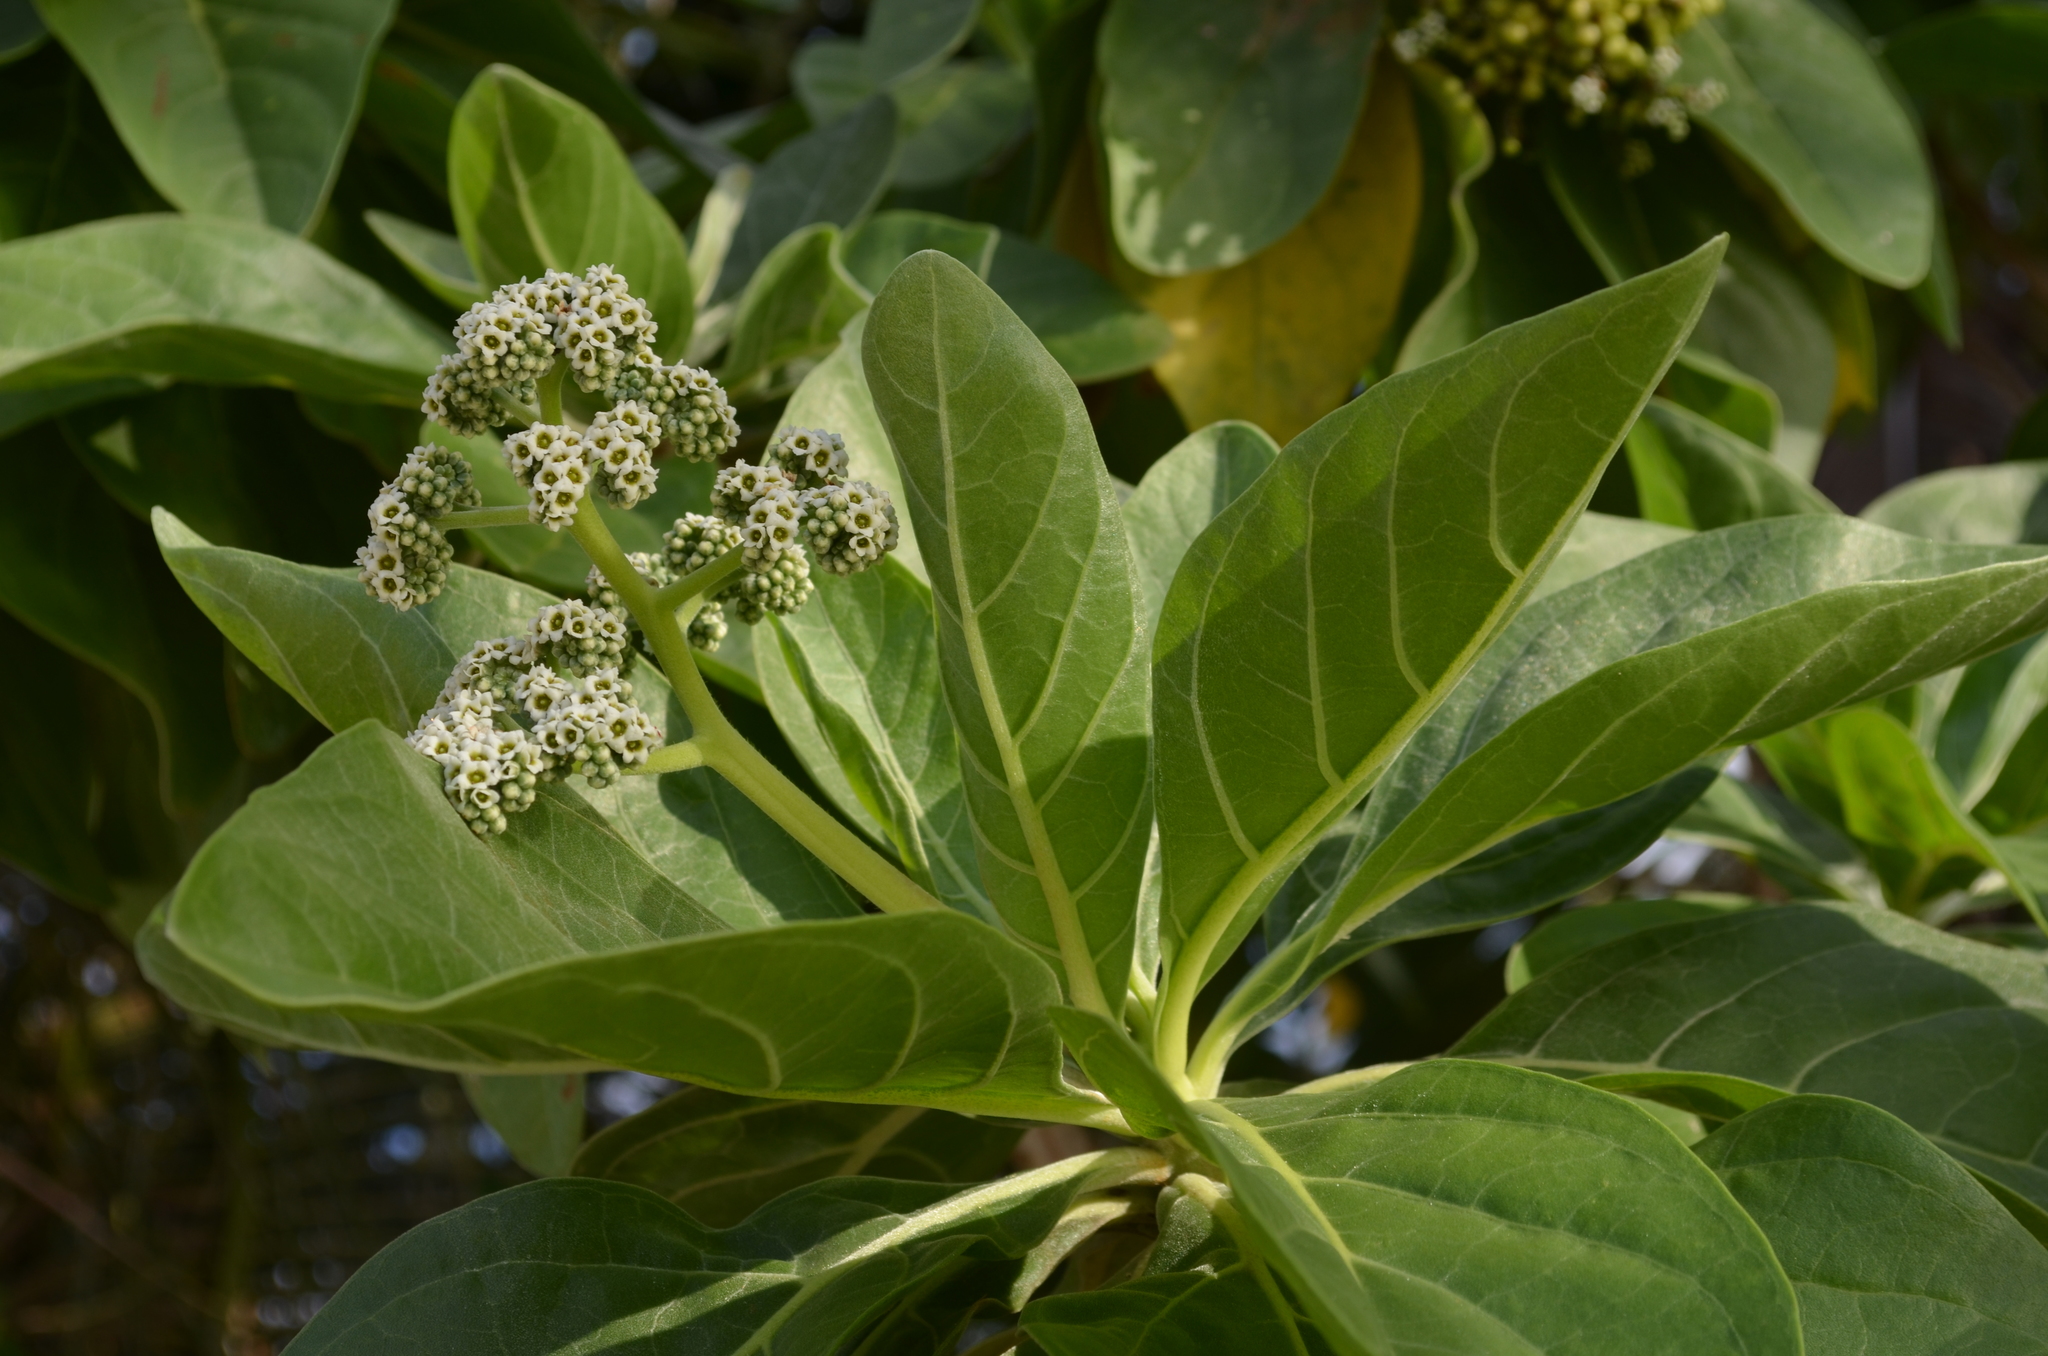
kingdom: Plantae
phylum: Tracheophyta
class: Magnoliopsida
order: Boraginales
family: Heliotropiaceae
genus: Heliotropium
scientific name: Heliotropium velutinum
